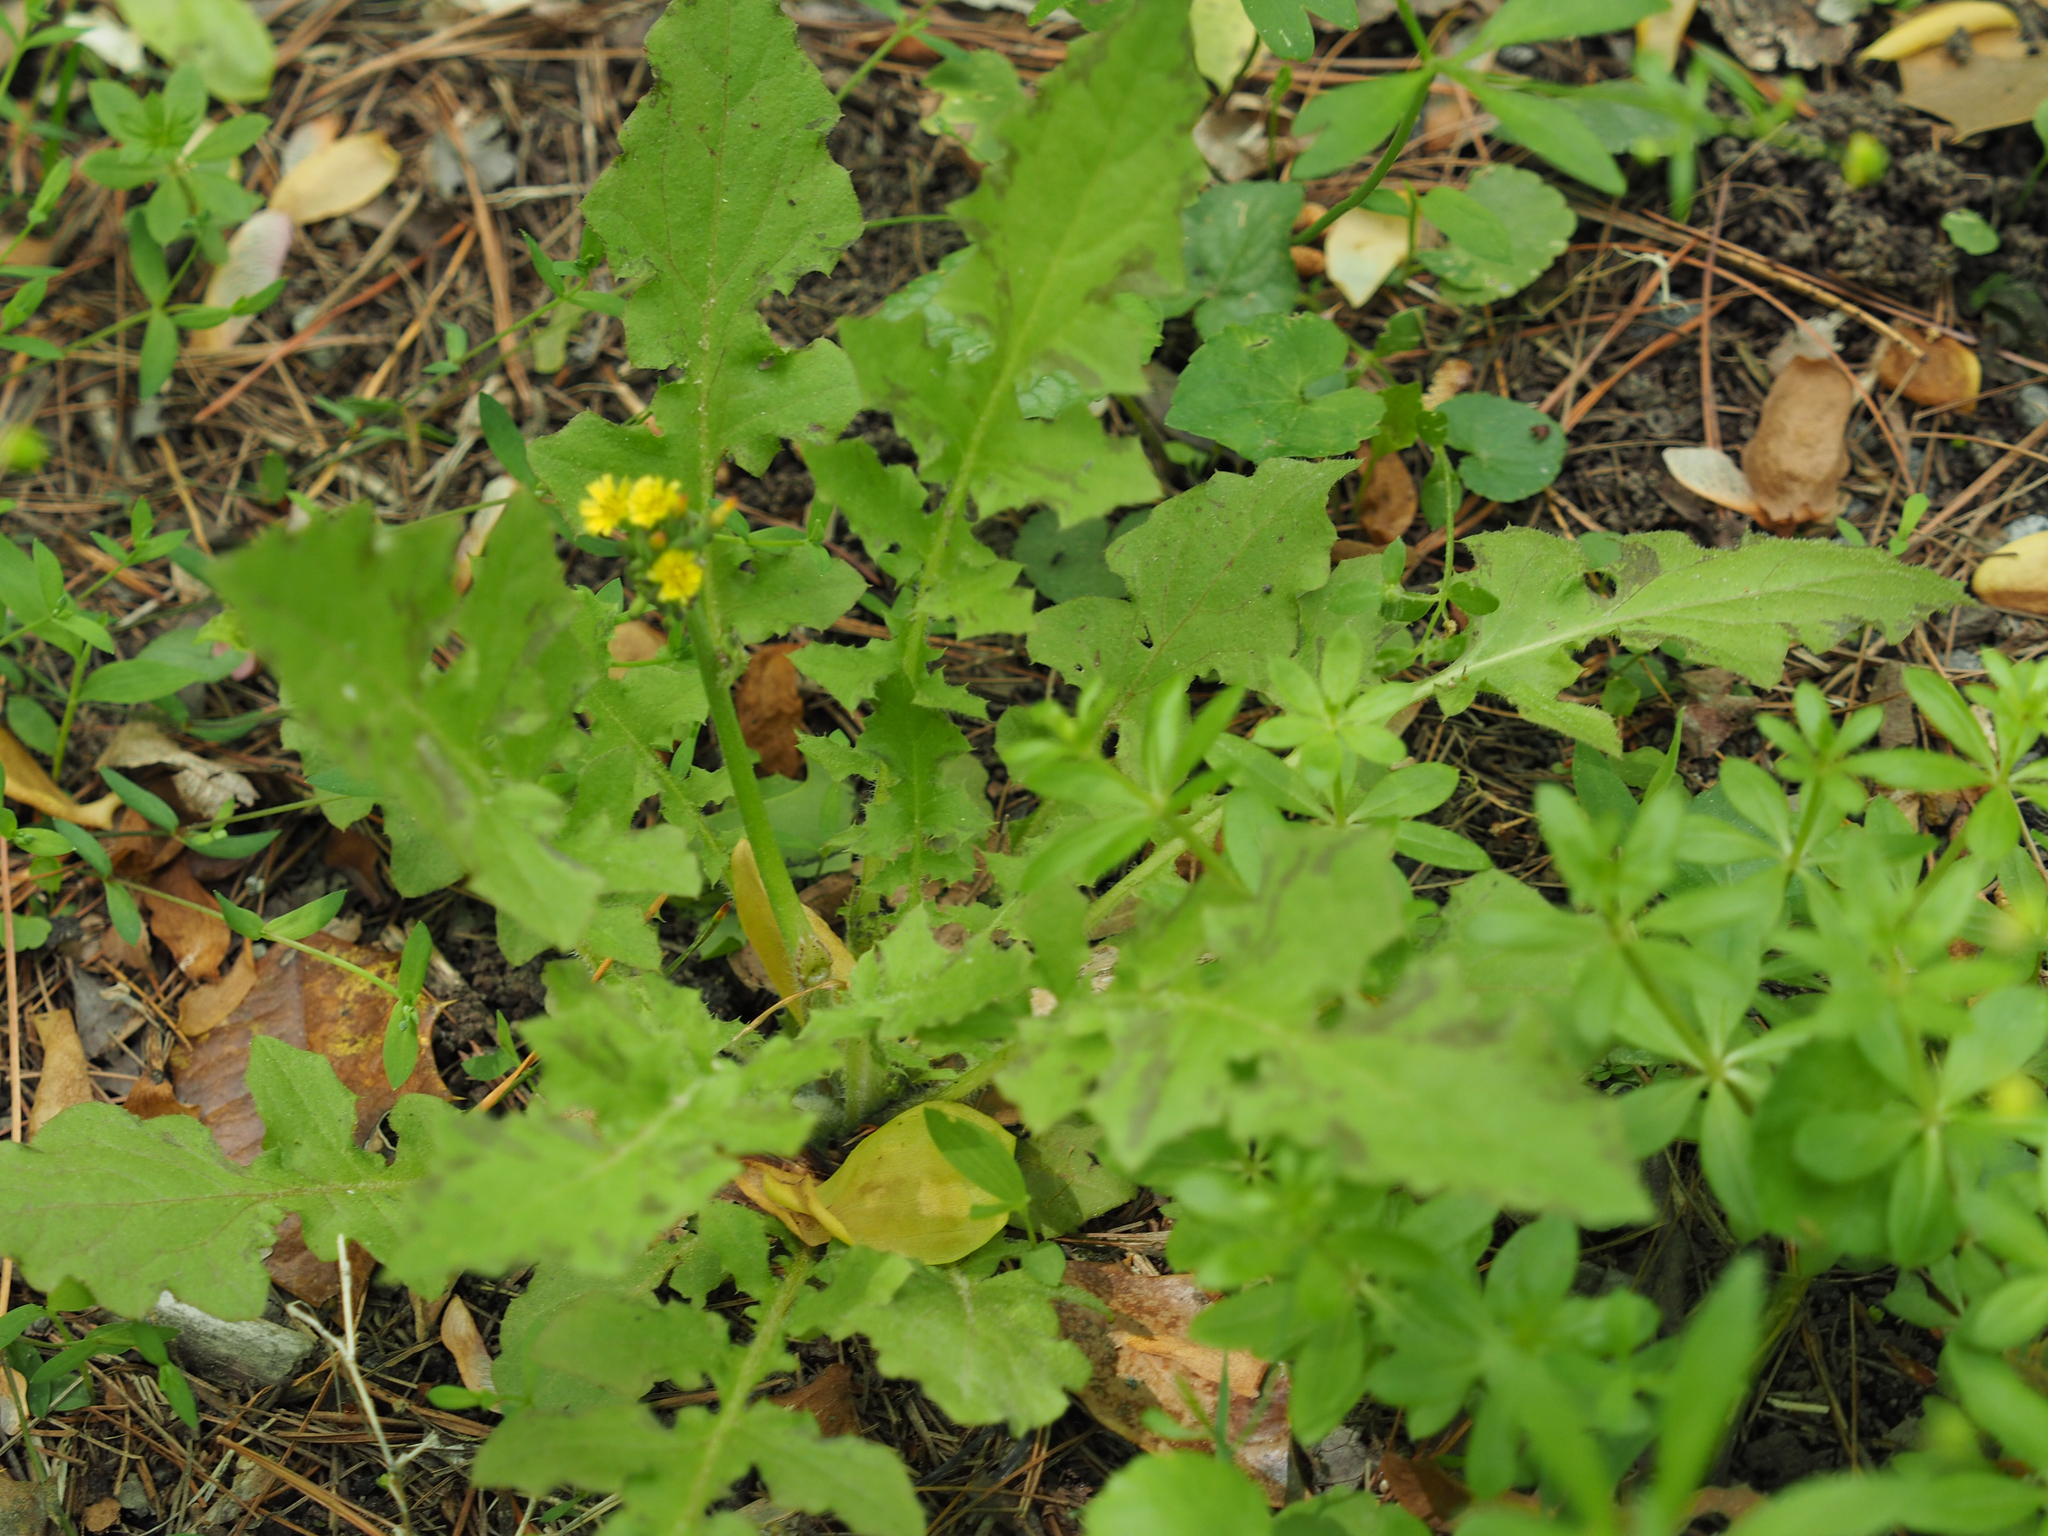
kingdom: Plantae
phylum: Tracheophyta
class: Magnoliopsida
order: Asterales
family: Asteraceae
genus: Youngia
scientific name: Youngia japonica
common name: Oriental false hawksbeard
